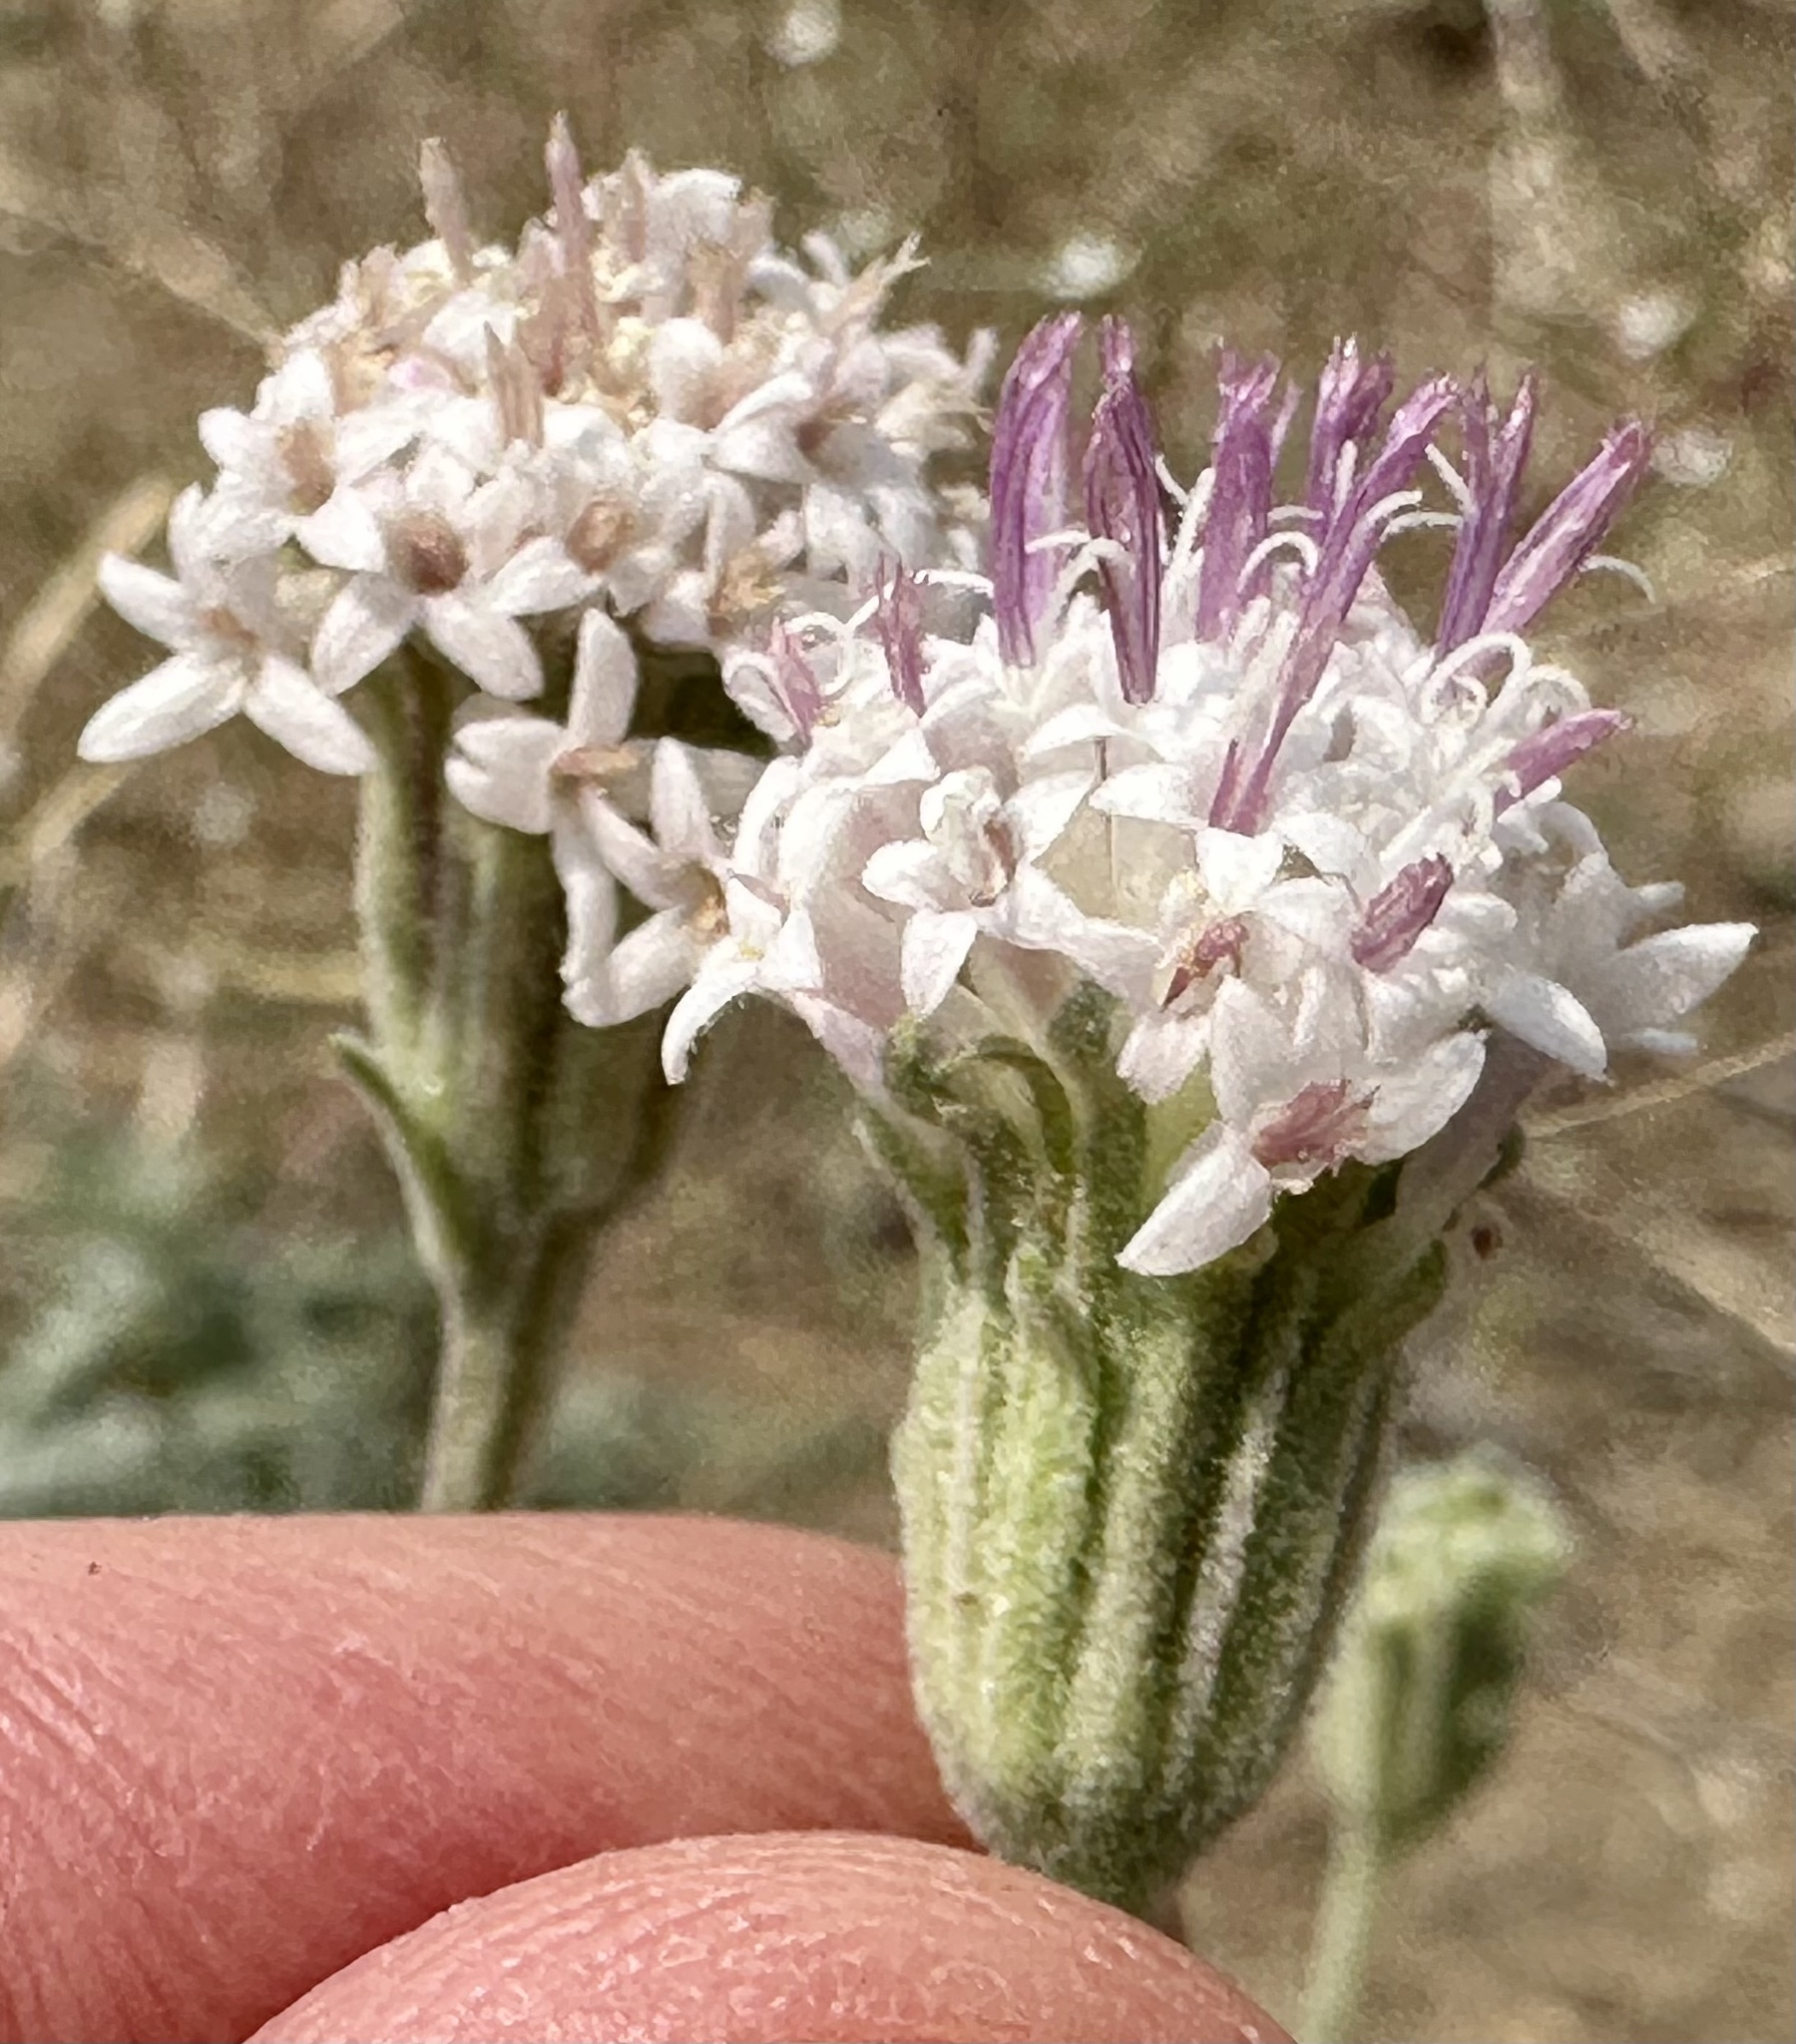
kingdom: Plantae
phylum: Tracheophyta
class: Magnoliopsida
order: Asterales
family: Asteraceae
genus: Chaenactis
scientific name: Chaenactis douglasii
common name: Hoary pincushion
